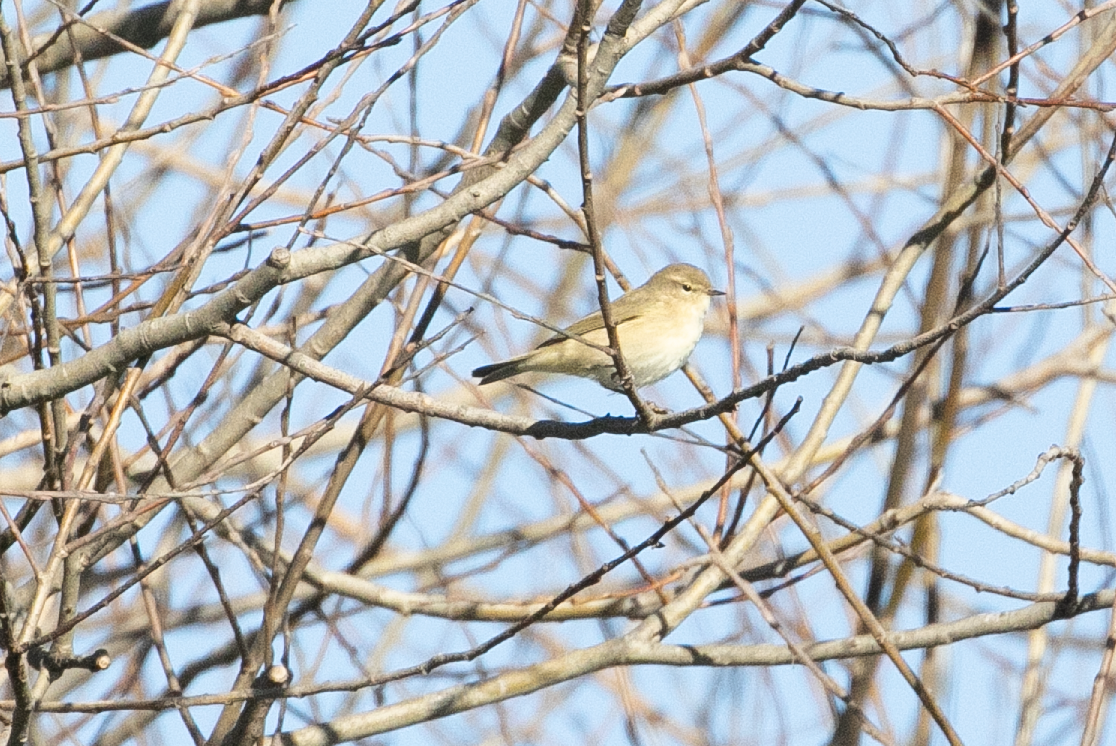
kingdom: Animalia
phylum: Chordata
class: Aves
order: Passeriformes
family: Phylloscopidae
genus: Phylloscopus
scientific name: Phylloscopus collybita
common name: Common chiffchaff
